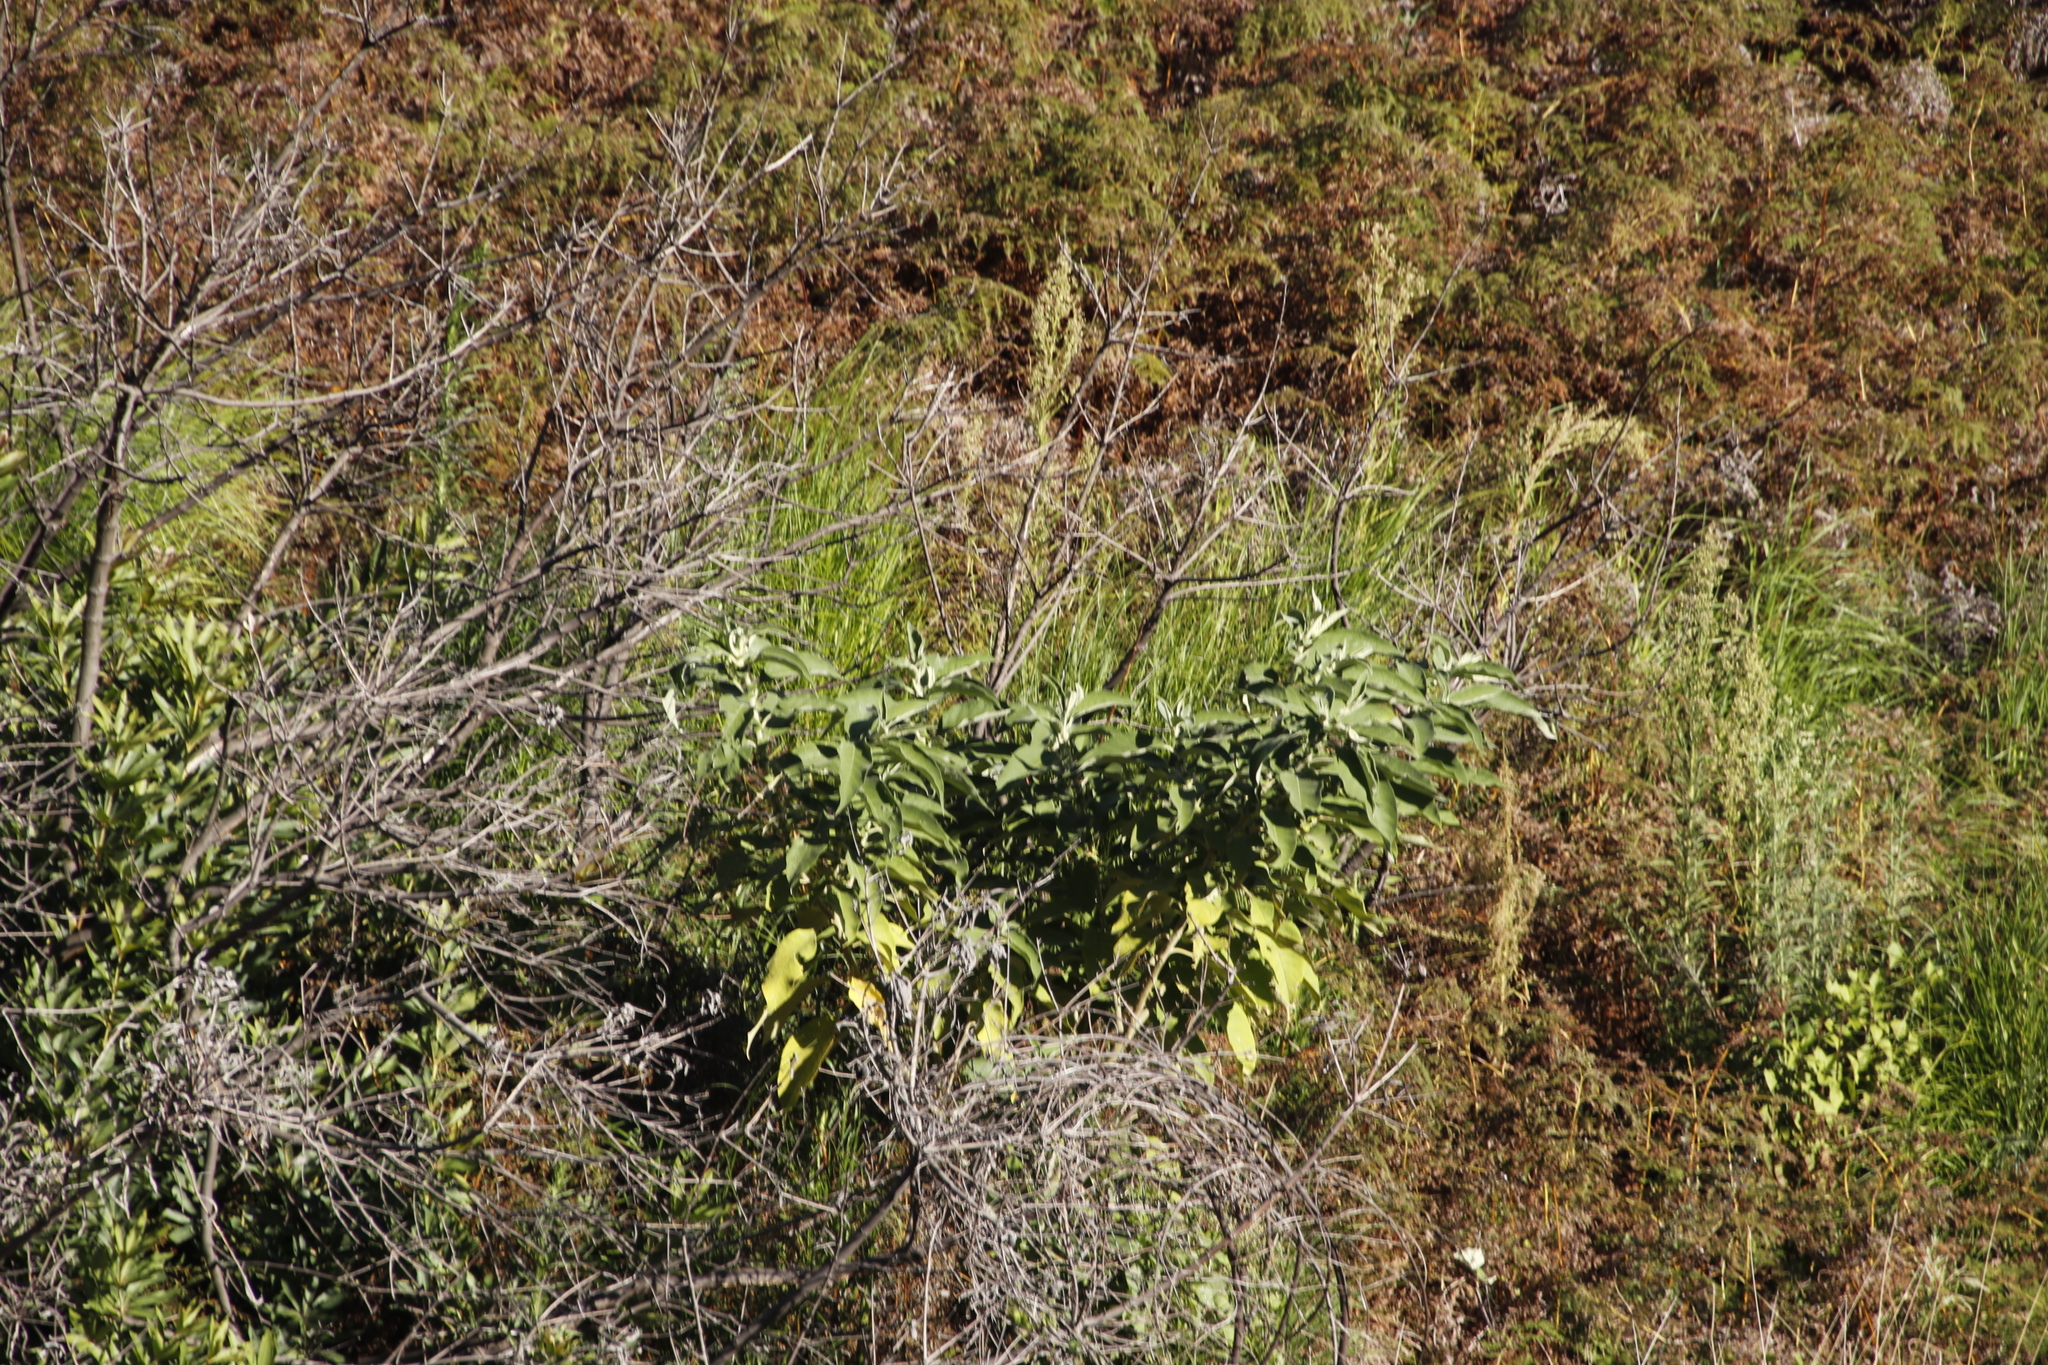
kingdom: Plantae
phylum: Tracheophyta
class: Magnoliopsida
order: Solanales
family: Solanaceae
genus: Solanum
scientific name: Solanum mauritianum
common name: Earleaf nightshade
